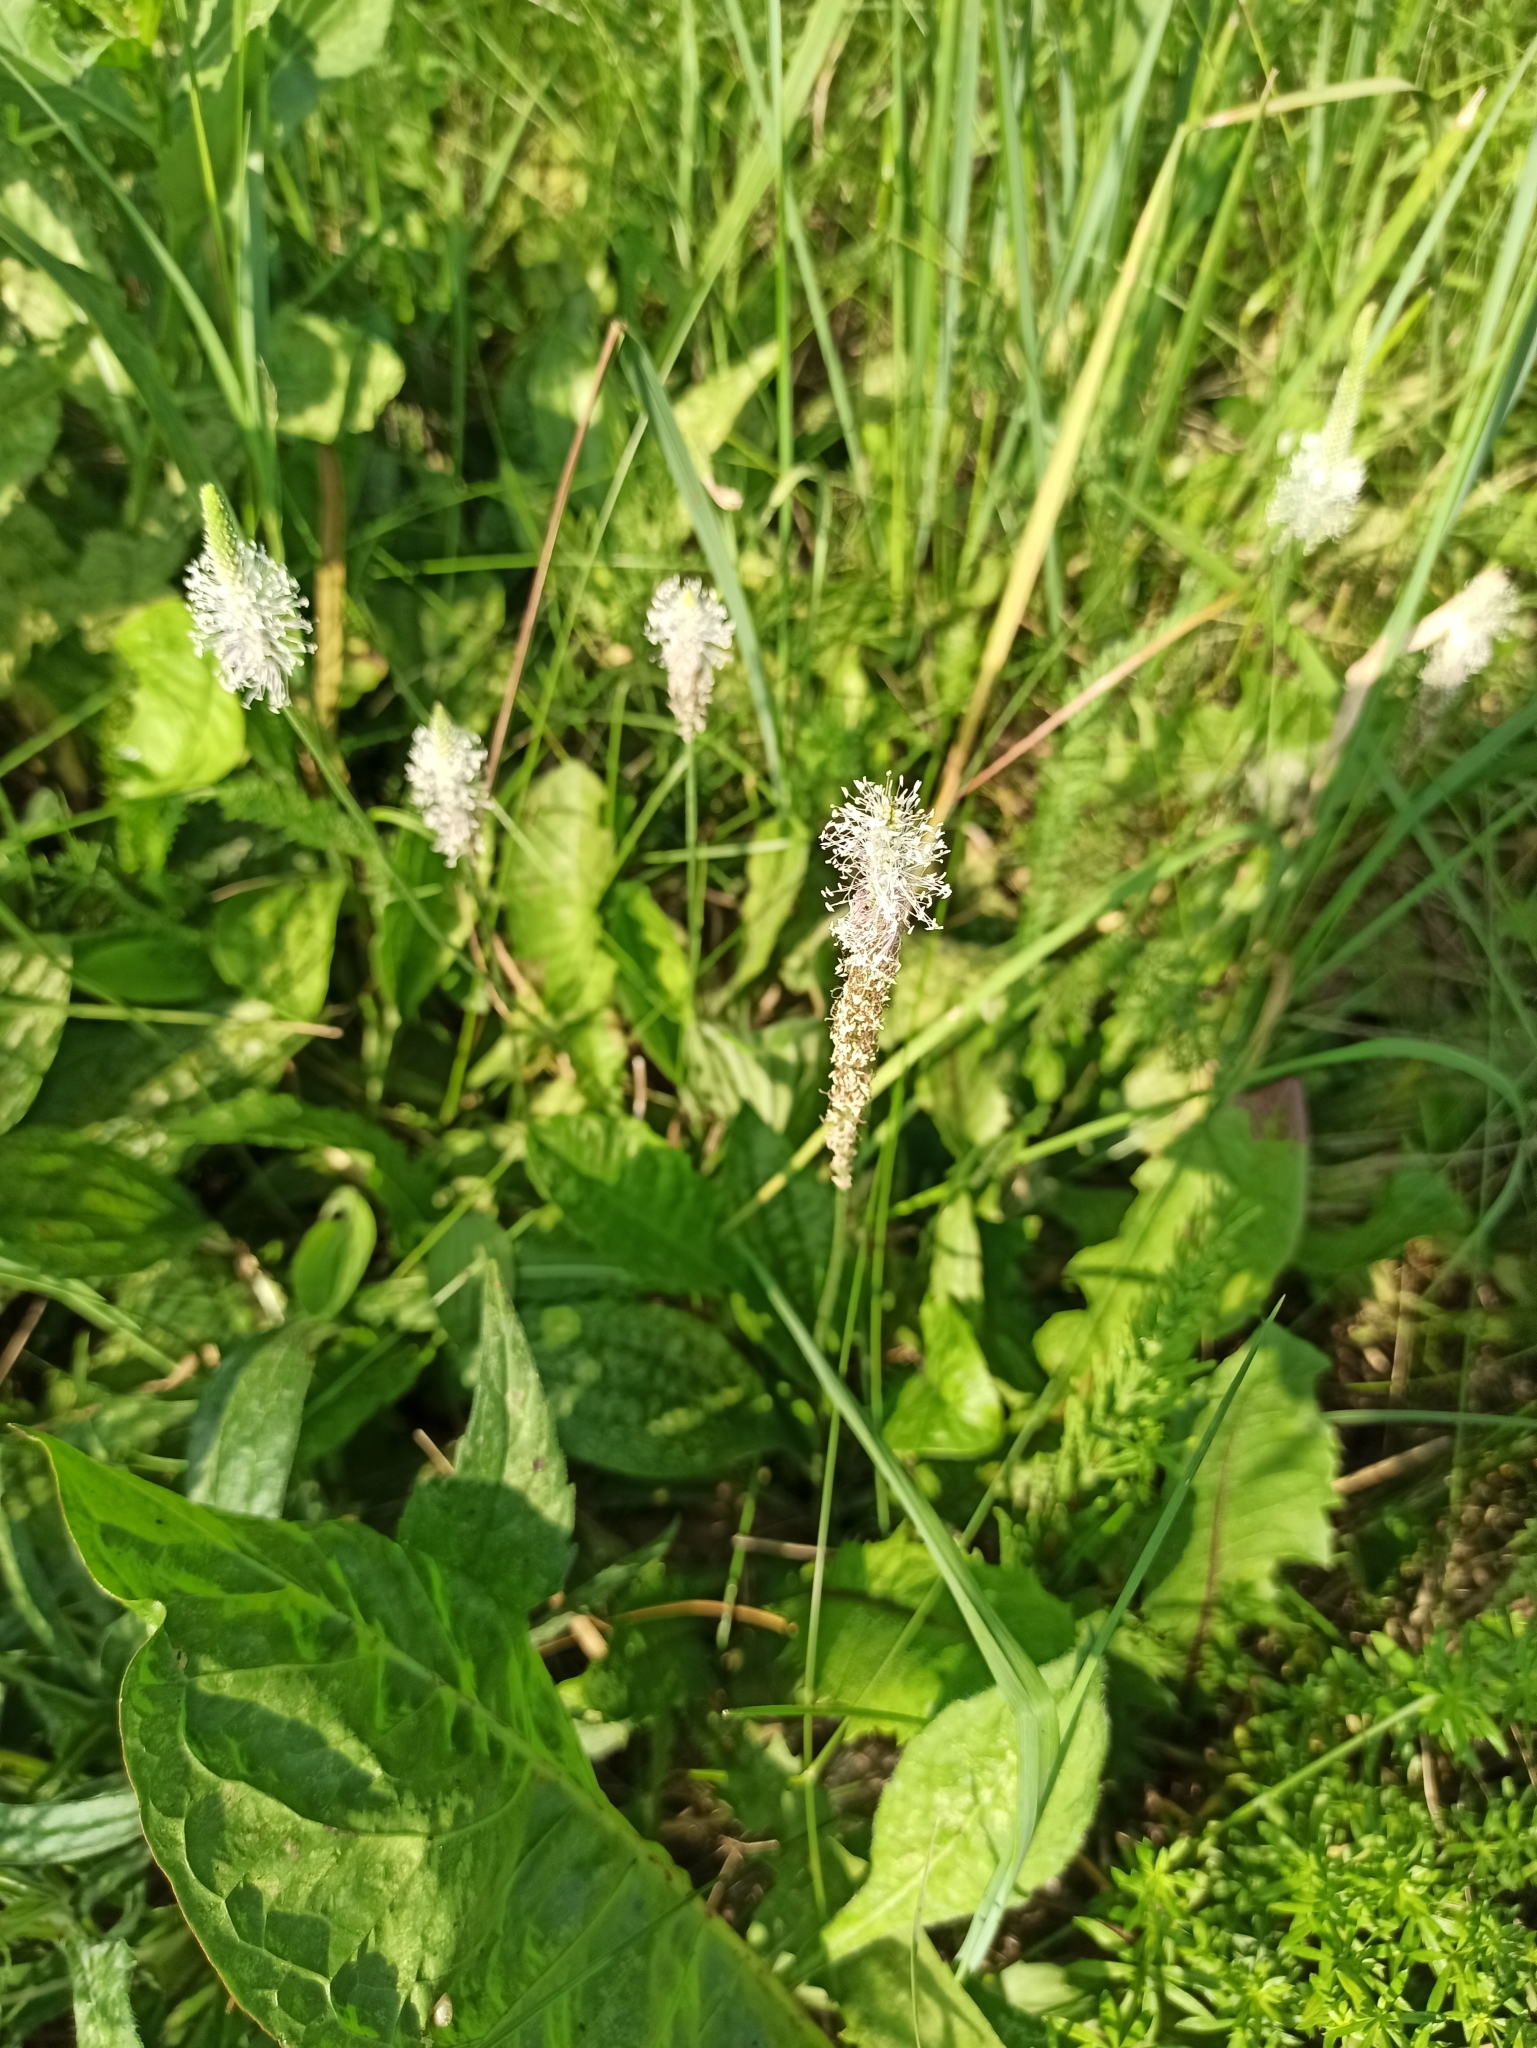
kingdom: Plantae
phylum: Tracheophyta
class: Magnoliopsida
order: Lamiales
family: Plantaginaceae
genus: Plantago
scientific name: Plantago media
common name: Hoary plantain
